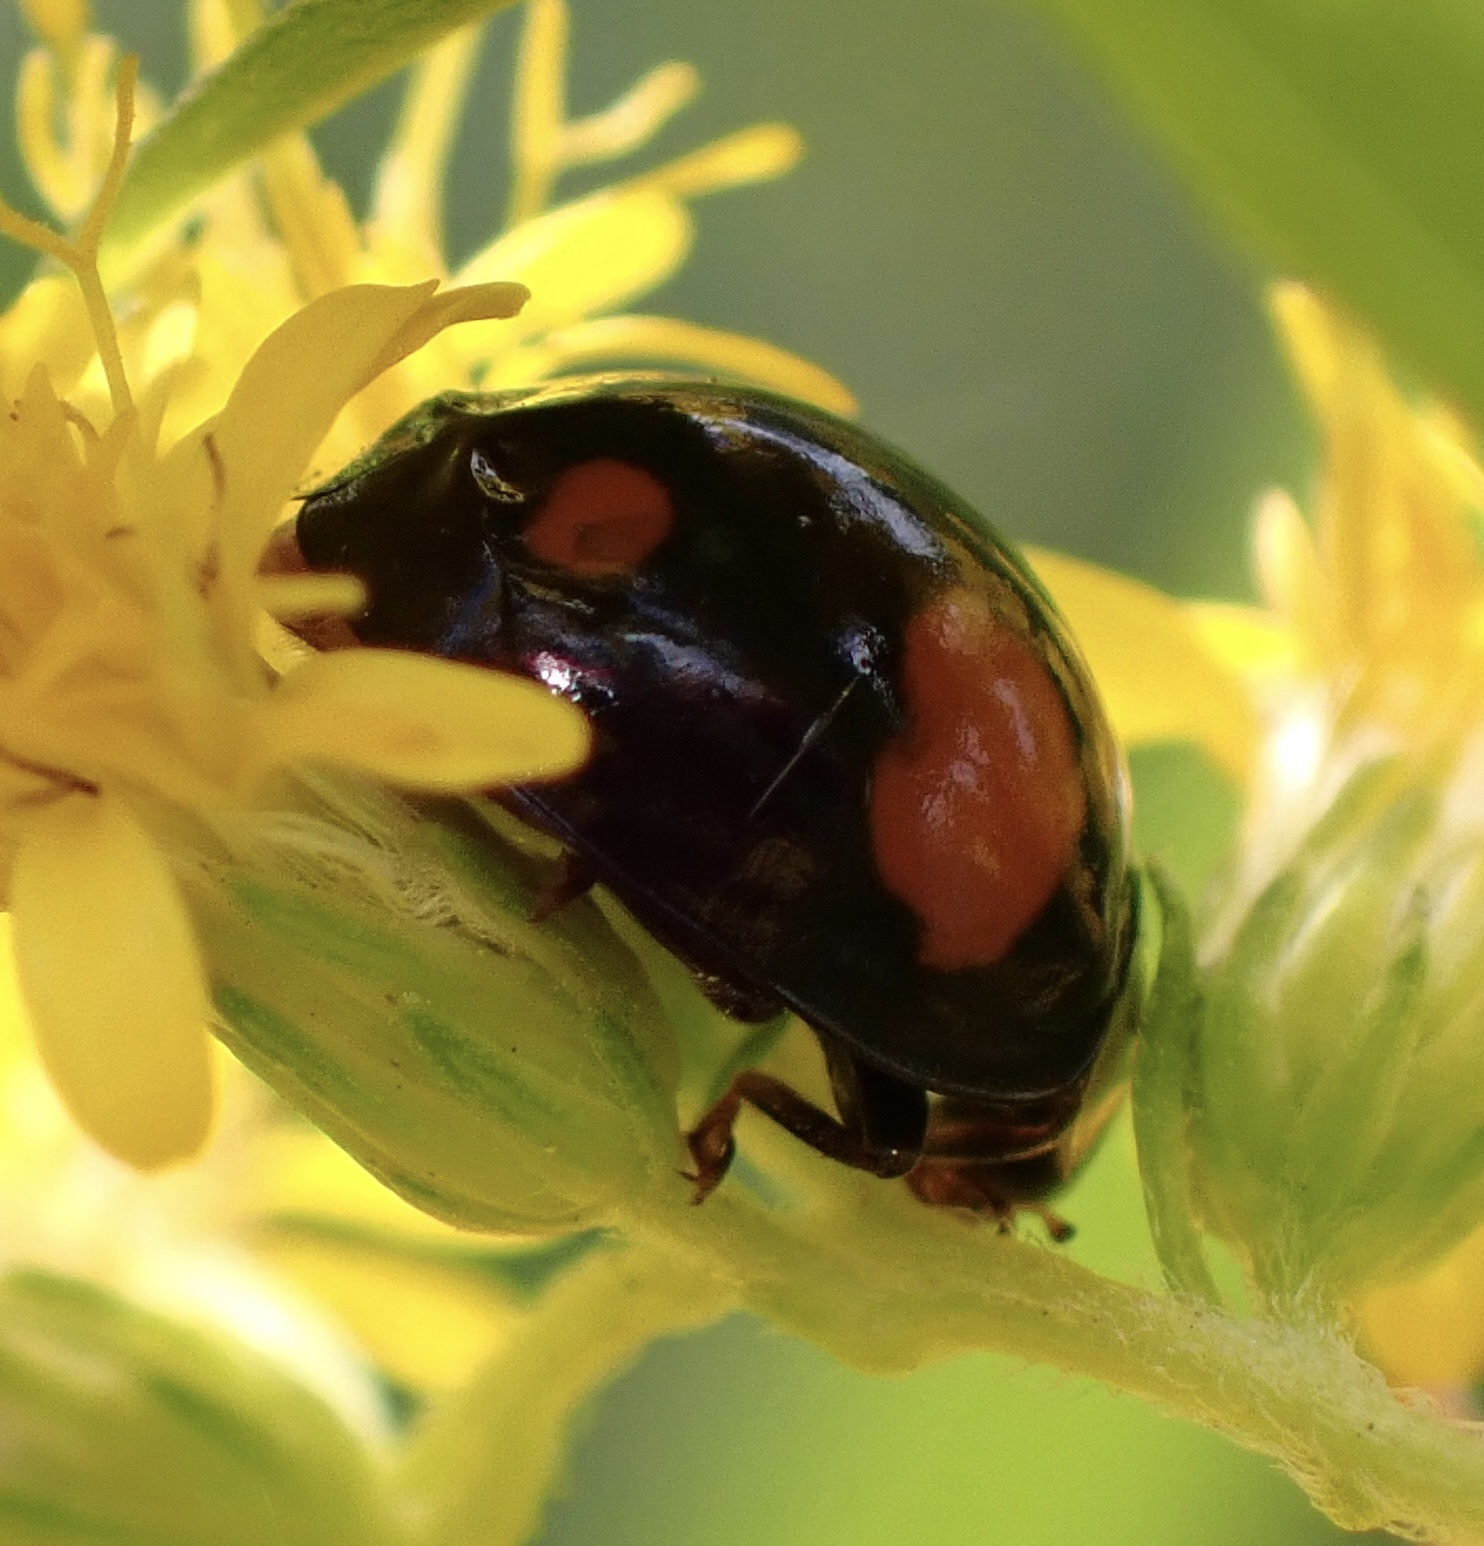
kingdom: Animalia
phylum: Arthropoda
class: Insecta
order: Coleoptera
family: Coccinellidae
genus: Harmonia
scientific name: Harmonia axyridis
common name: Harlequin ladybird
